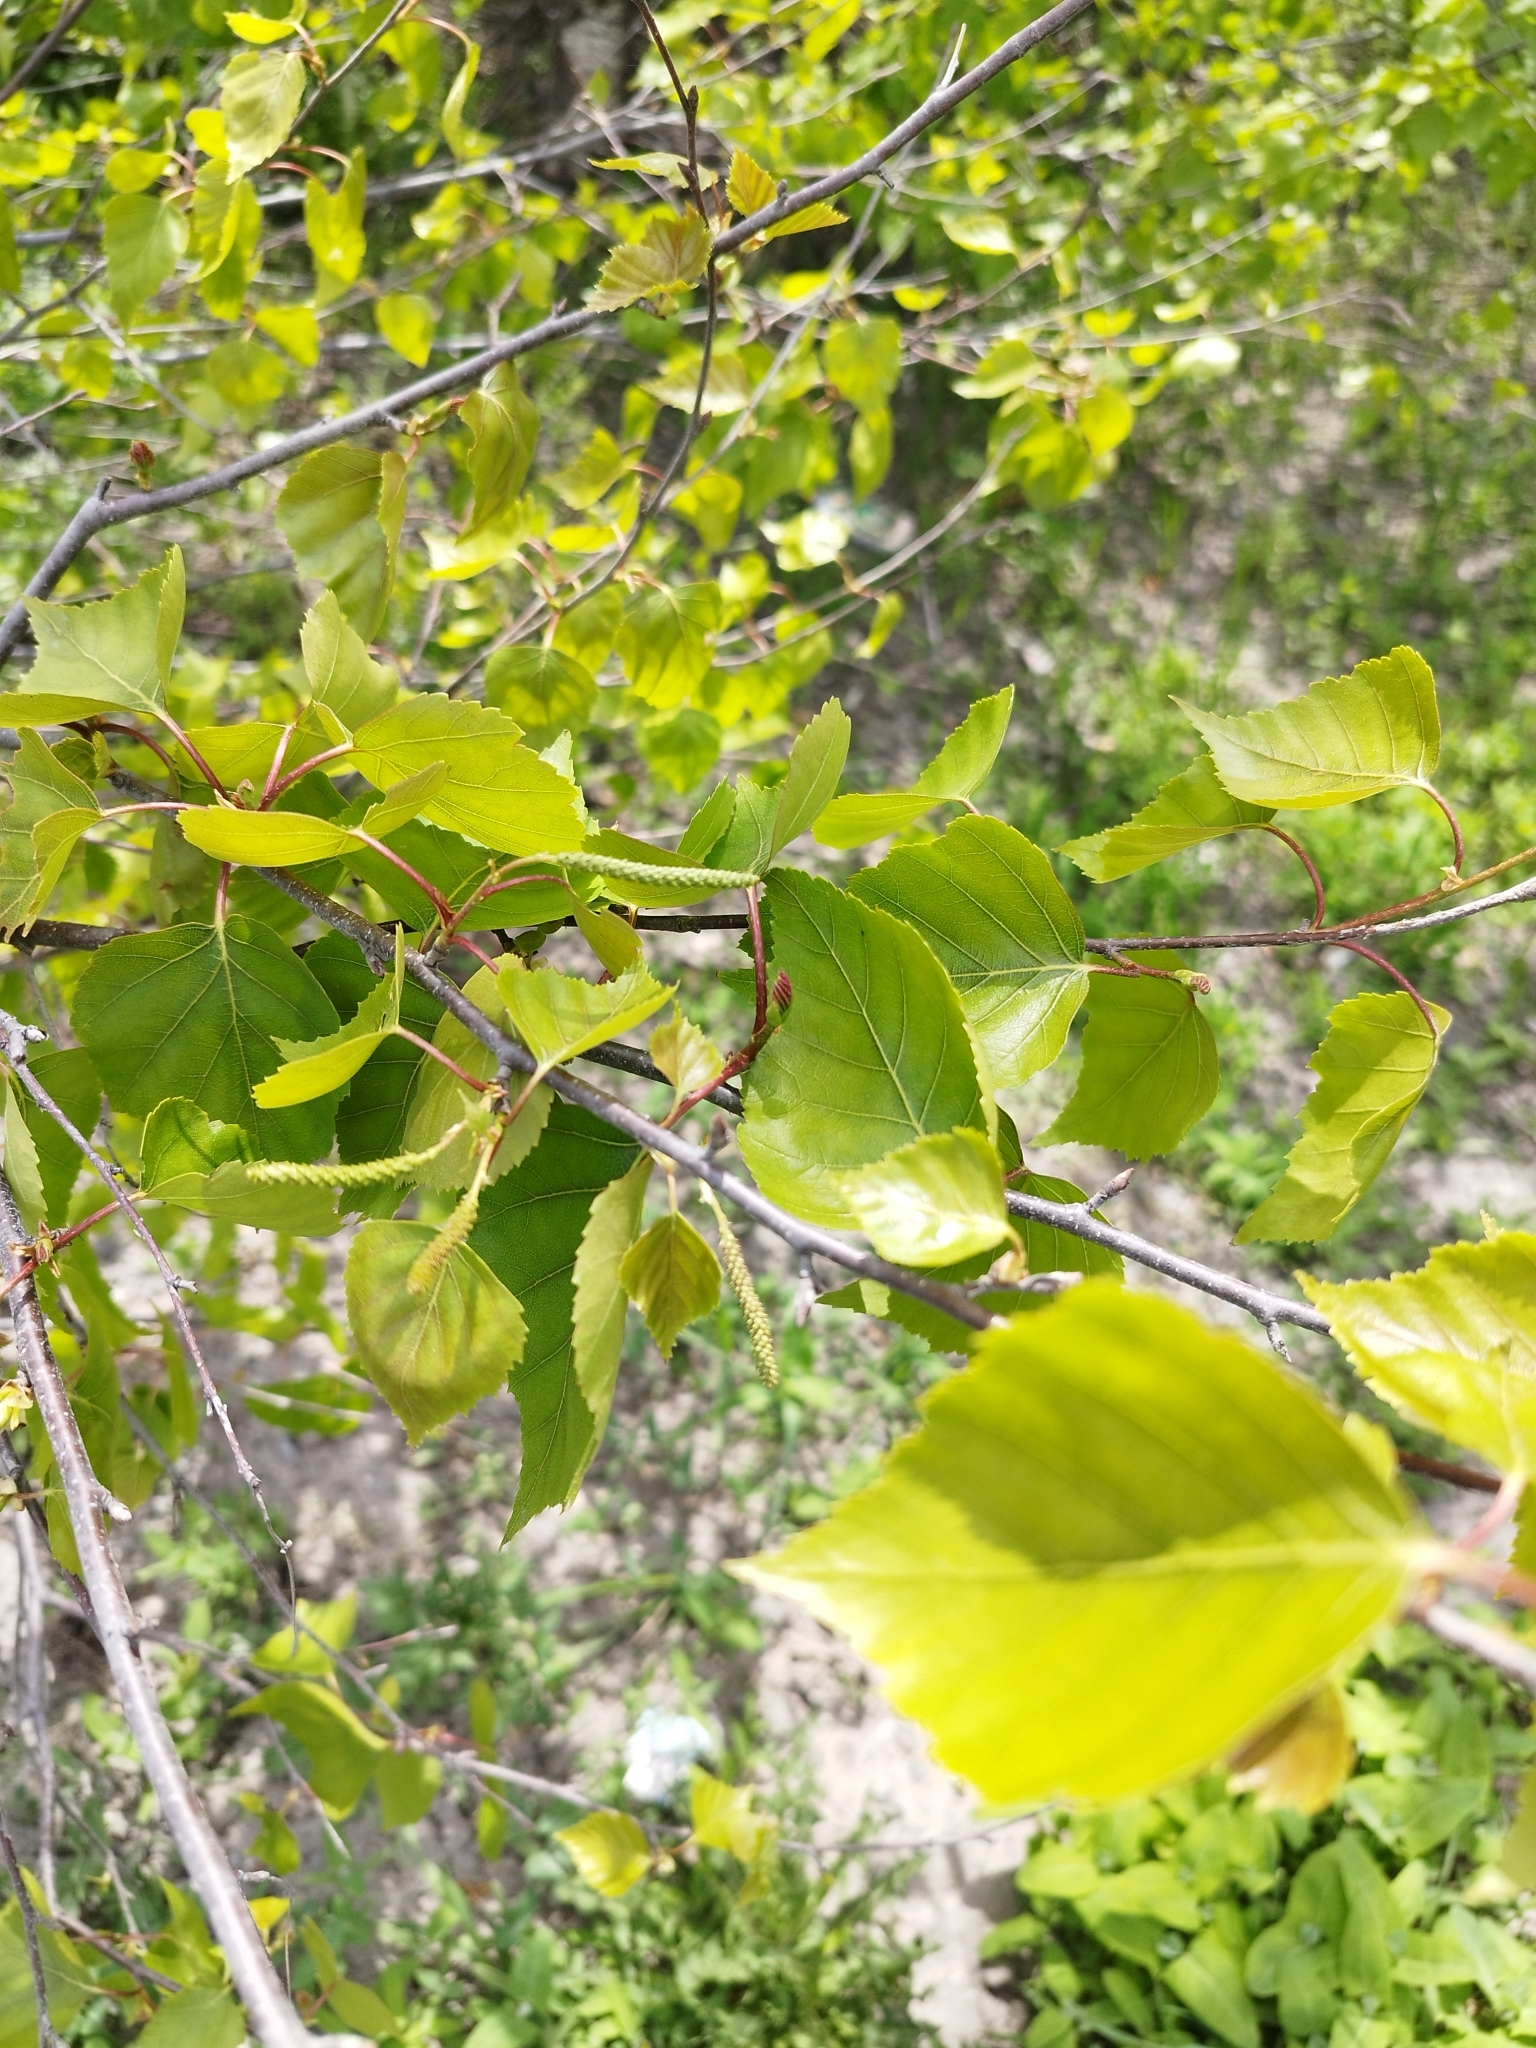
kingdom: Plantae
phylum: Tracheophyta
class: Magnoliopsida
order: Fagales
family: Betulaceae
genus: Betula
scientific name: Betula pendula
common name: Silver birch
